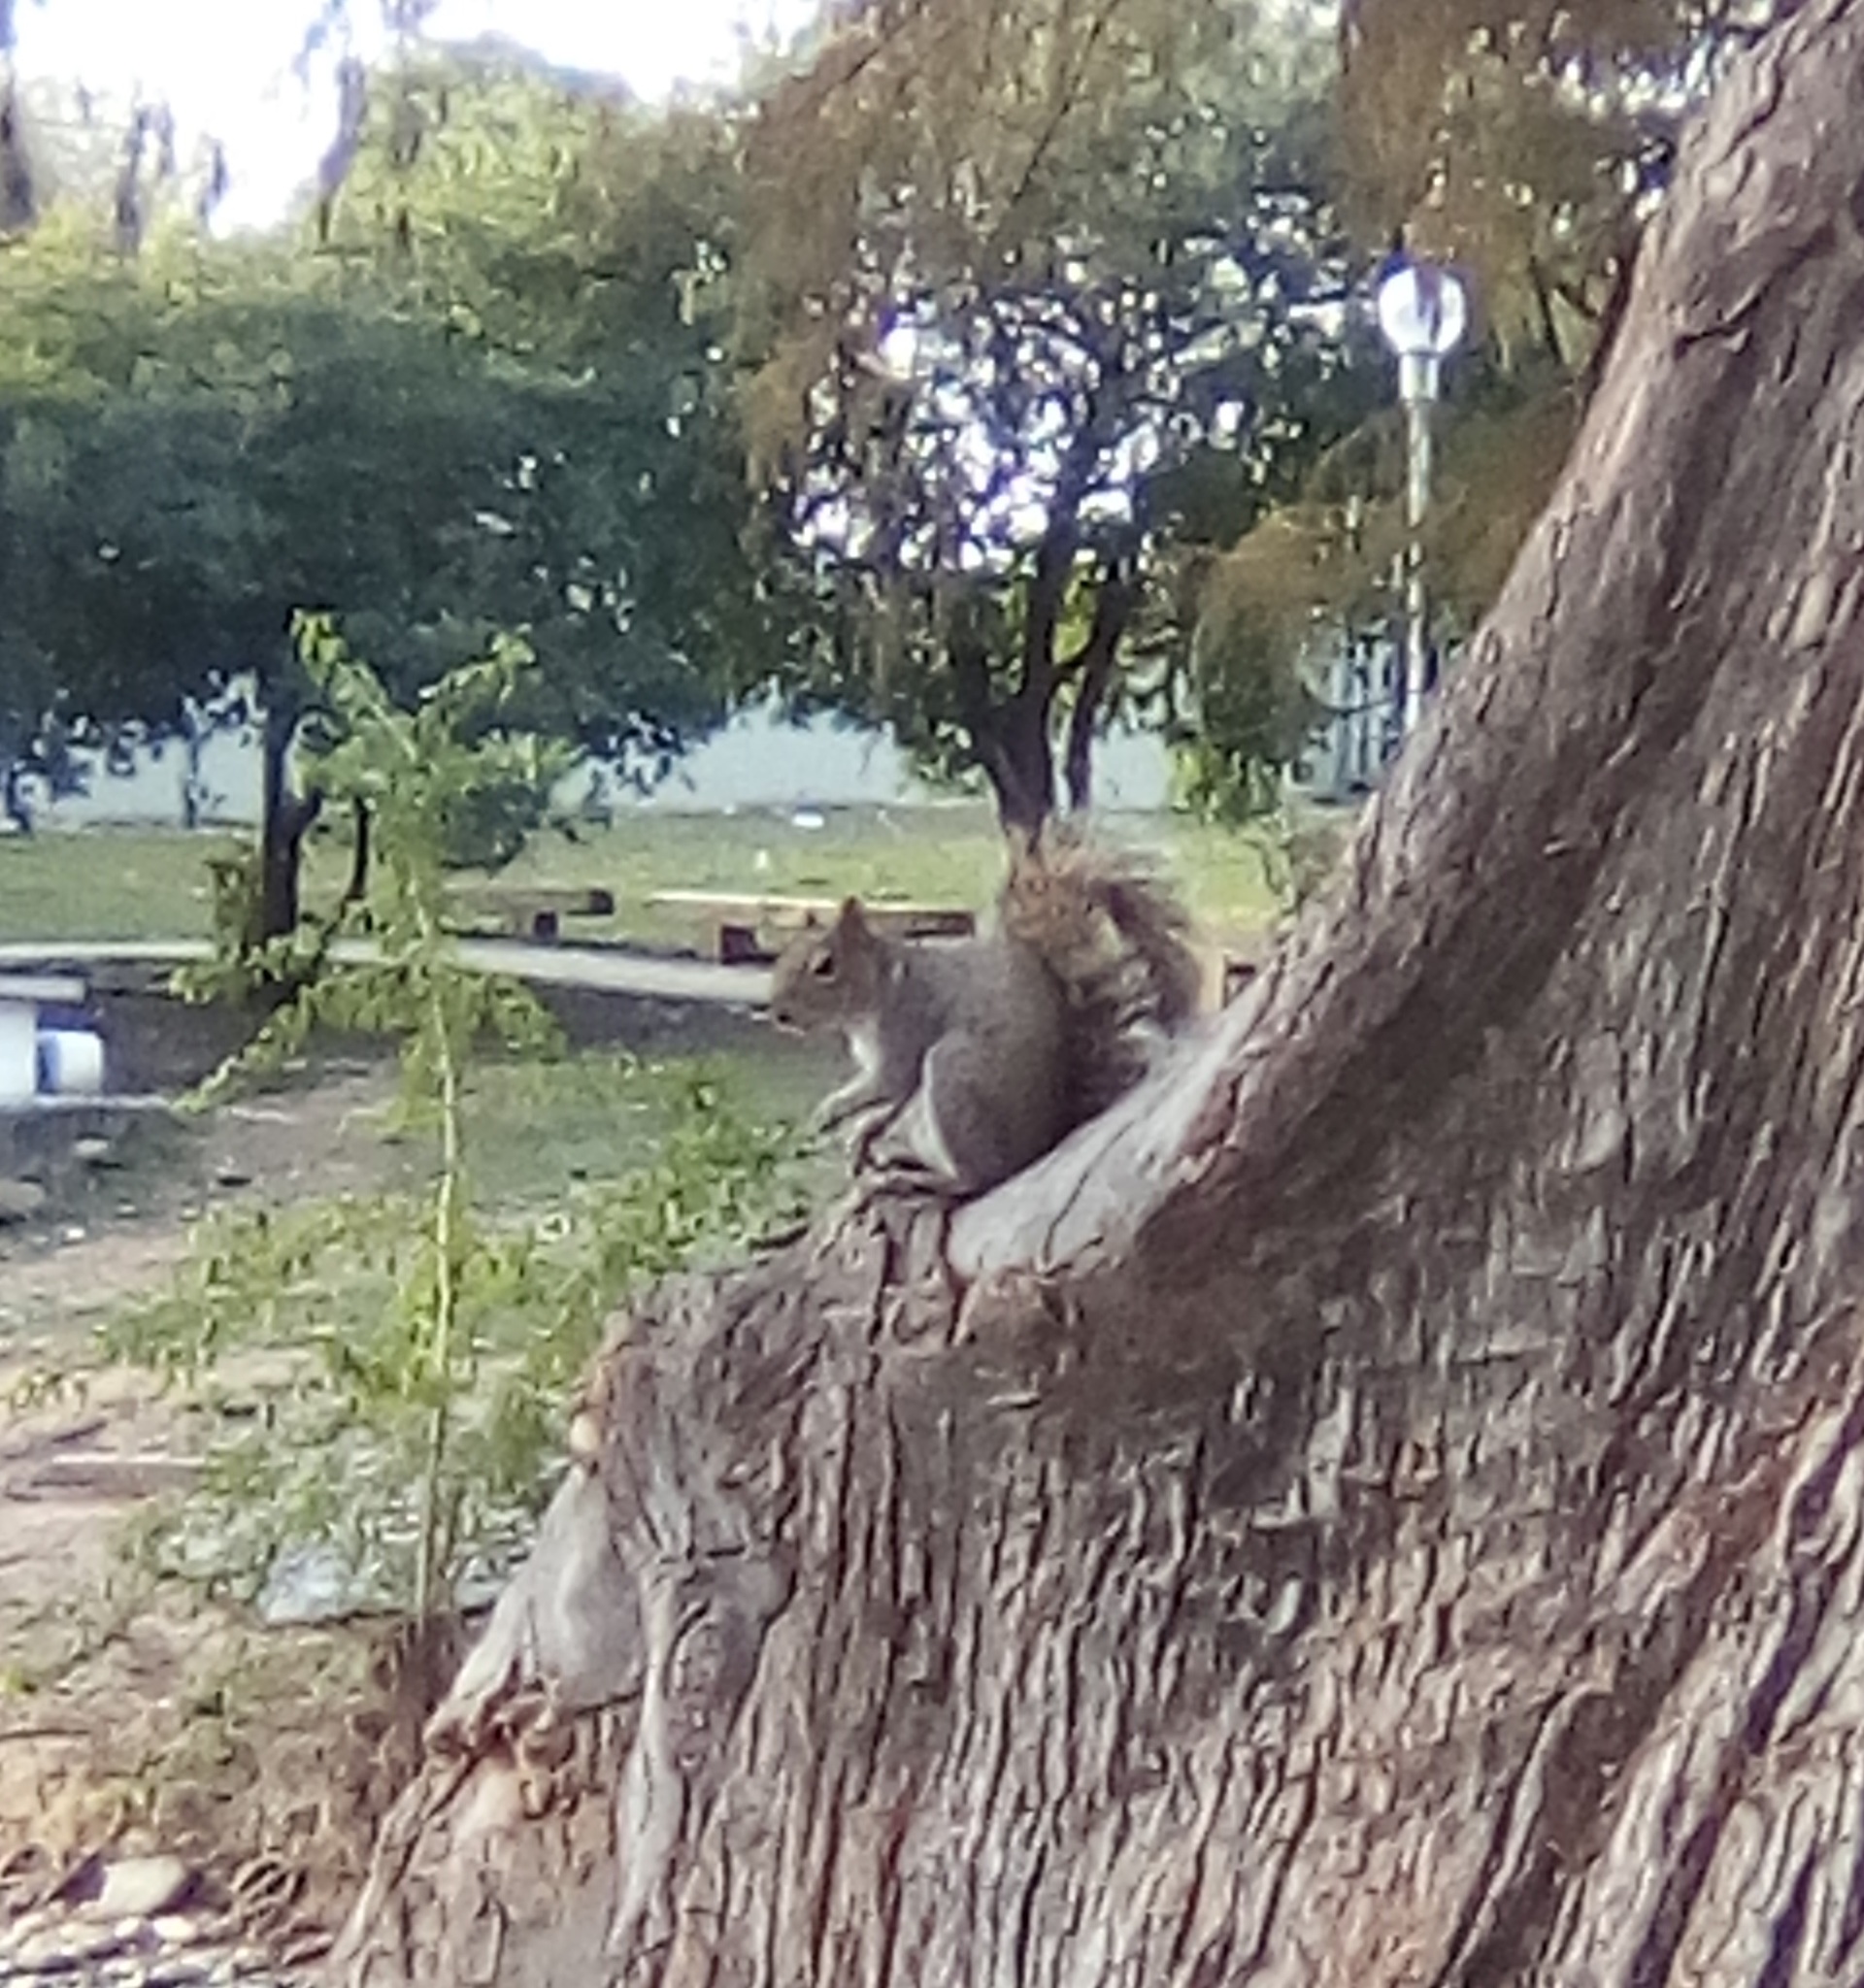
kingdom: Animalia
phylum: Chordata
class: Mammalia
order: Rodentia
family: Sciuridae
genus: Sciurus
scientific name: Sciurus alleni
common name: Allen's squirrel
